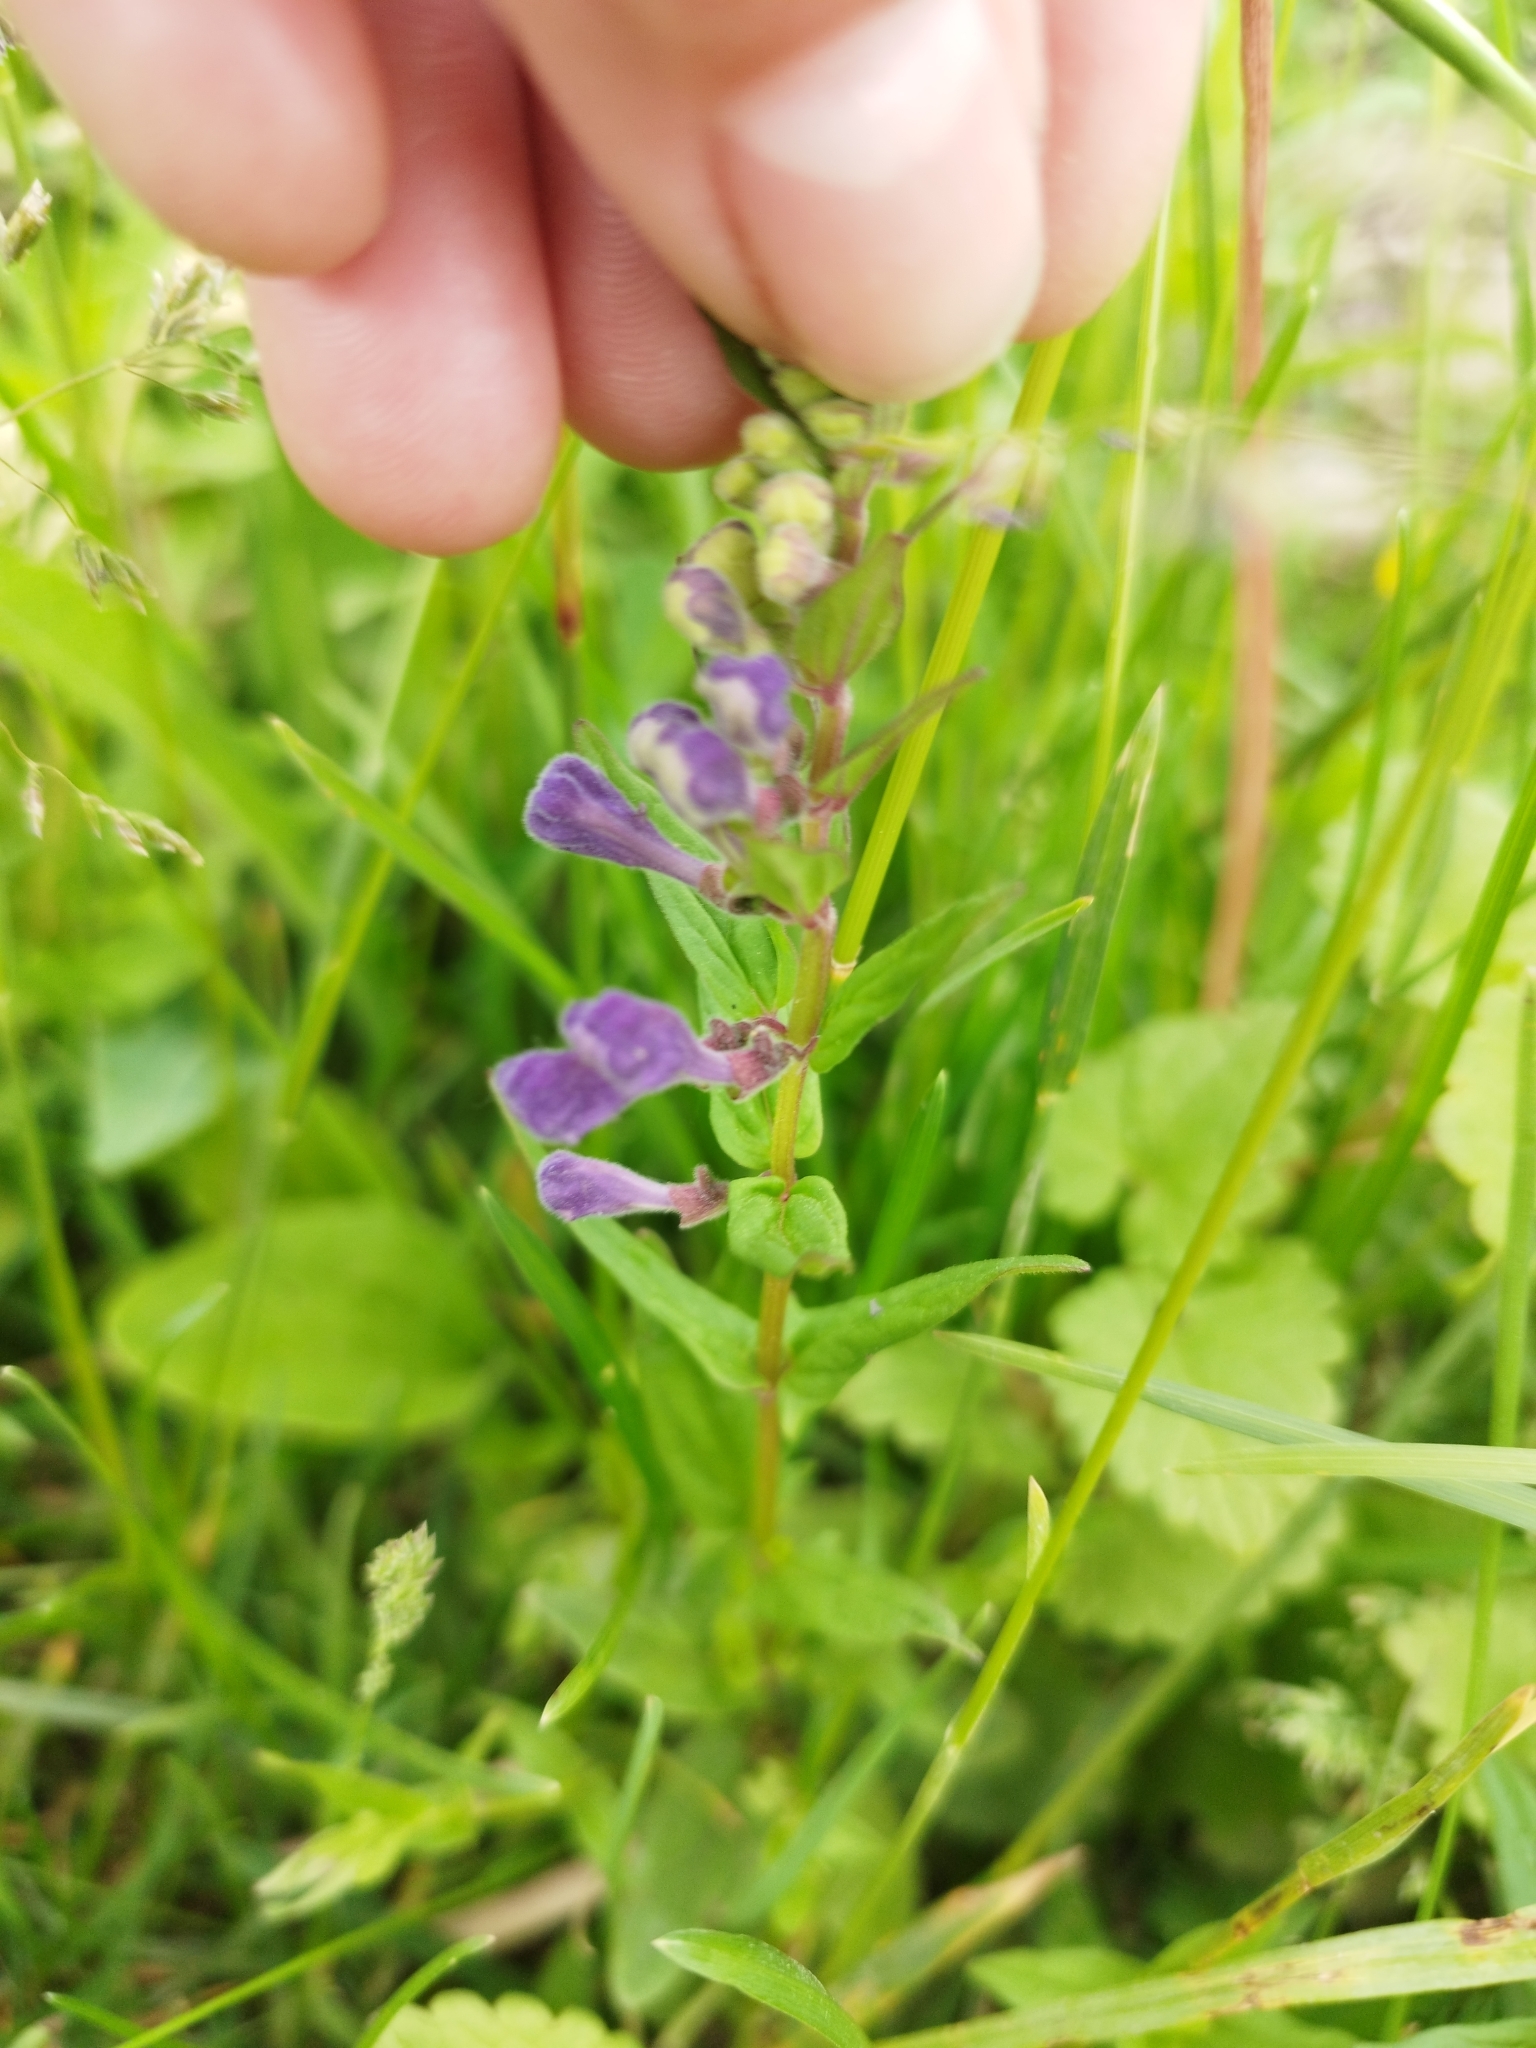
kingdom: Plantae
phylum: Tracheophyta
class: Magnoliopsida
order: Lamiales
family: Lamiaceae
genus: Scutellaria
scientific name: Scutellaria hastifolia
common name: Norfolk skullcap
